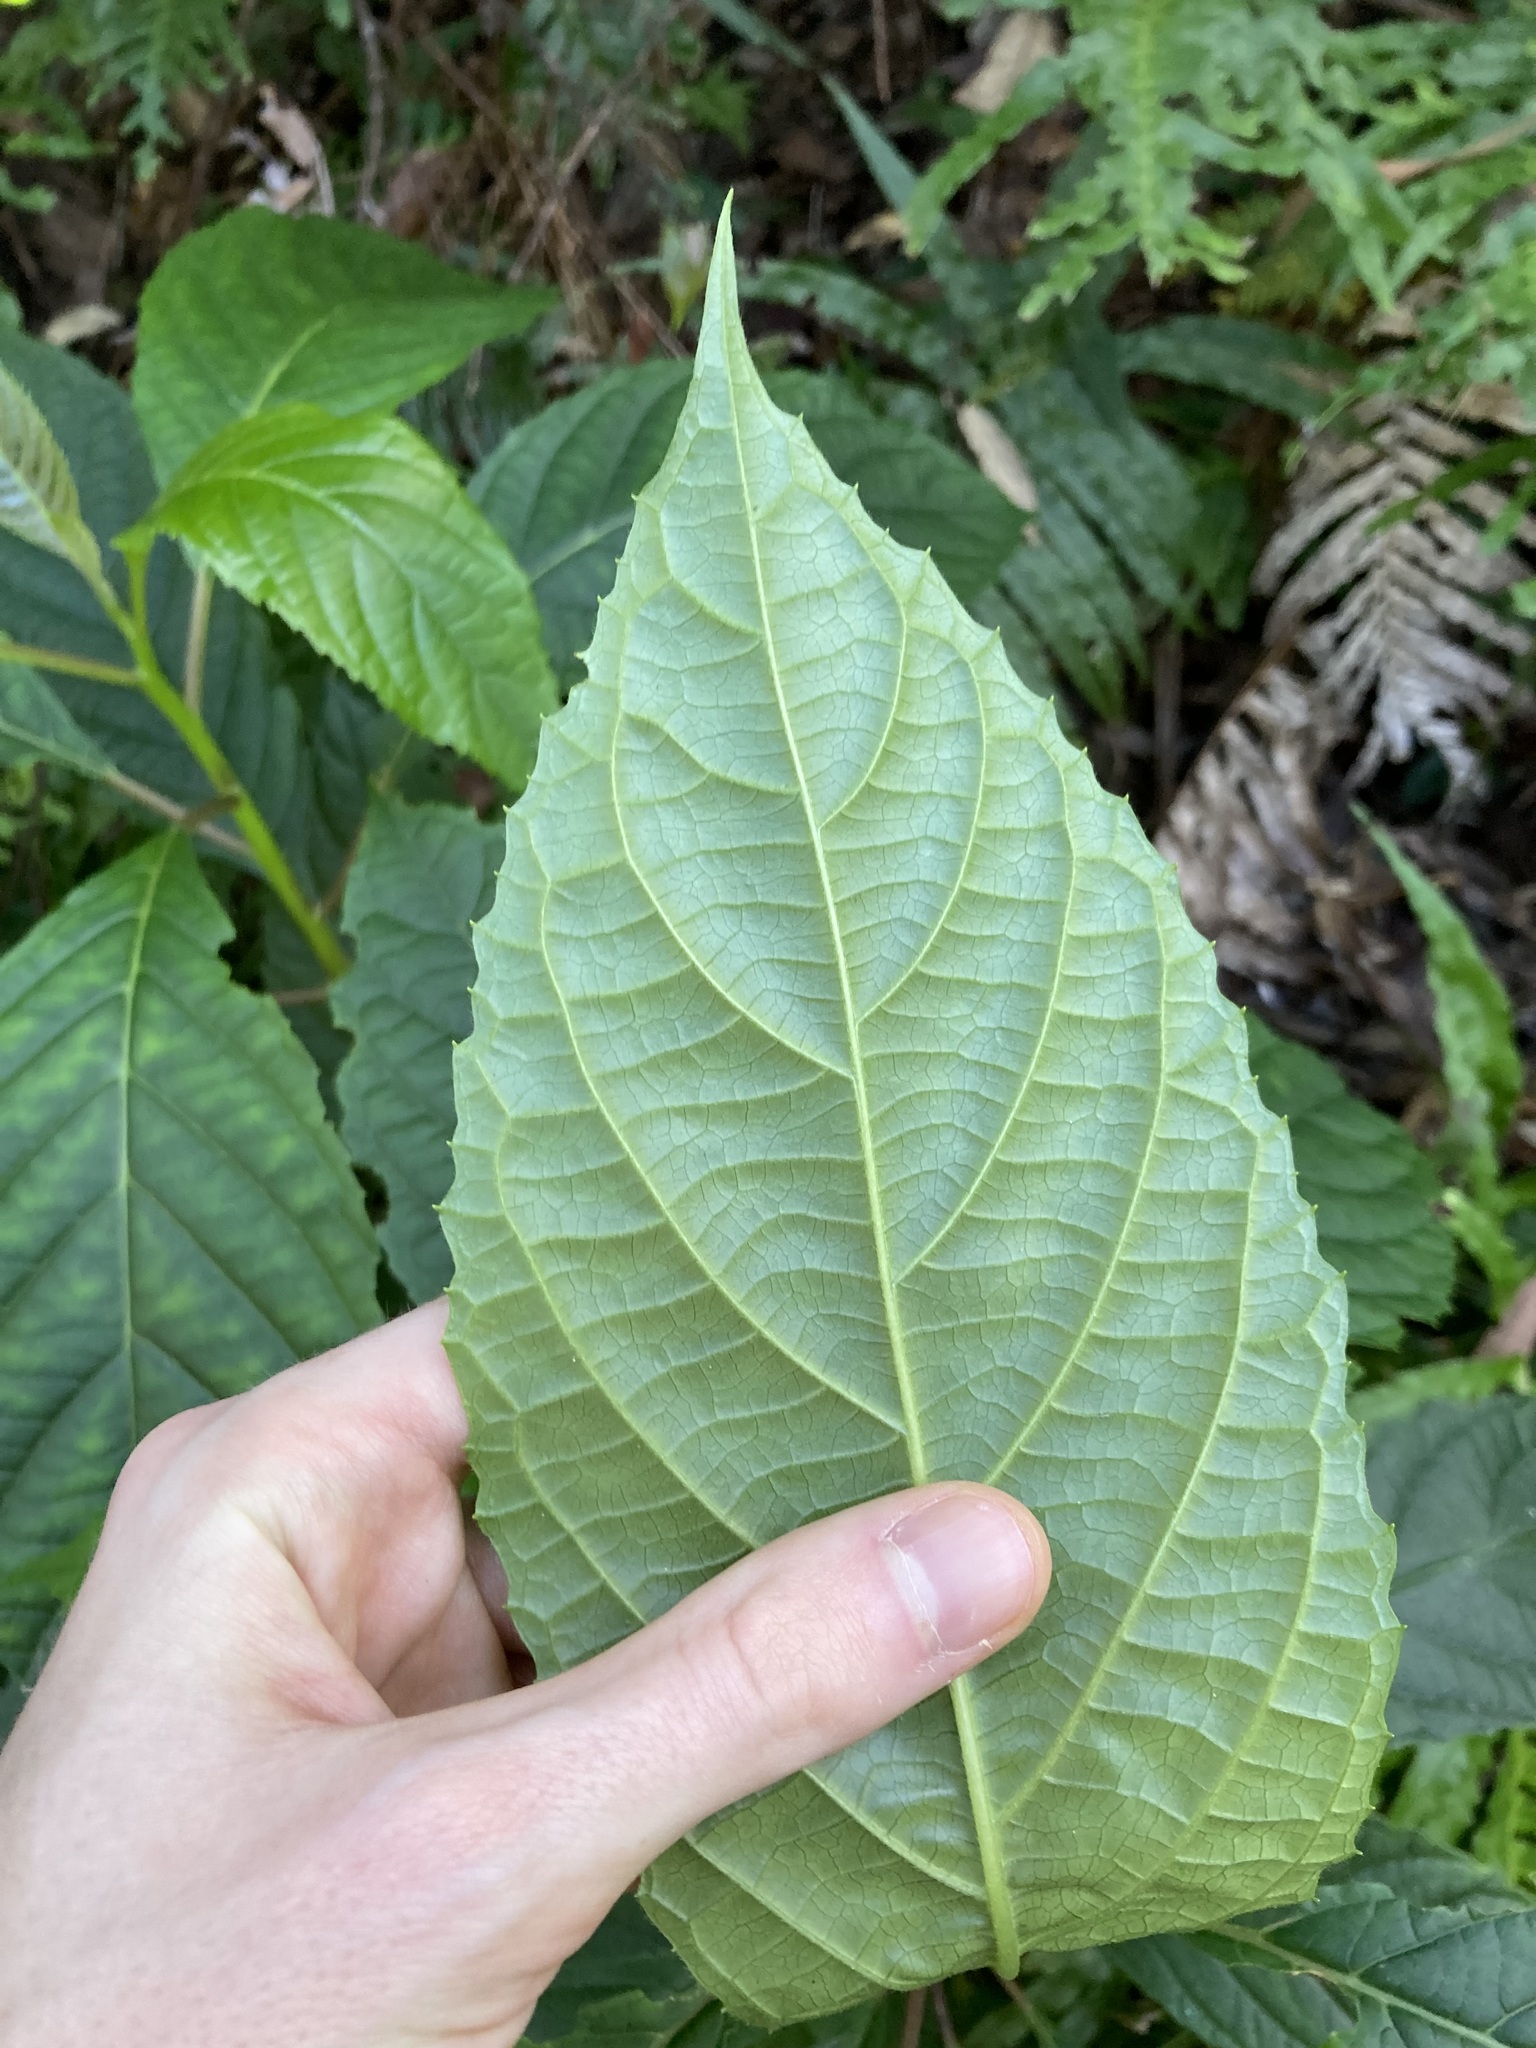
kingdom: Plantae
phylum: Tracheophyta
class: Magnoliopsida
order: Asterales
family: Rousseaceae
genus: Abrophyllum
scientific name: Abrophyllum ornans
